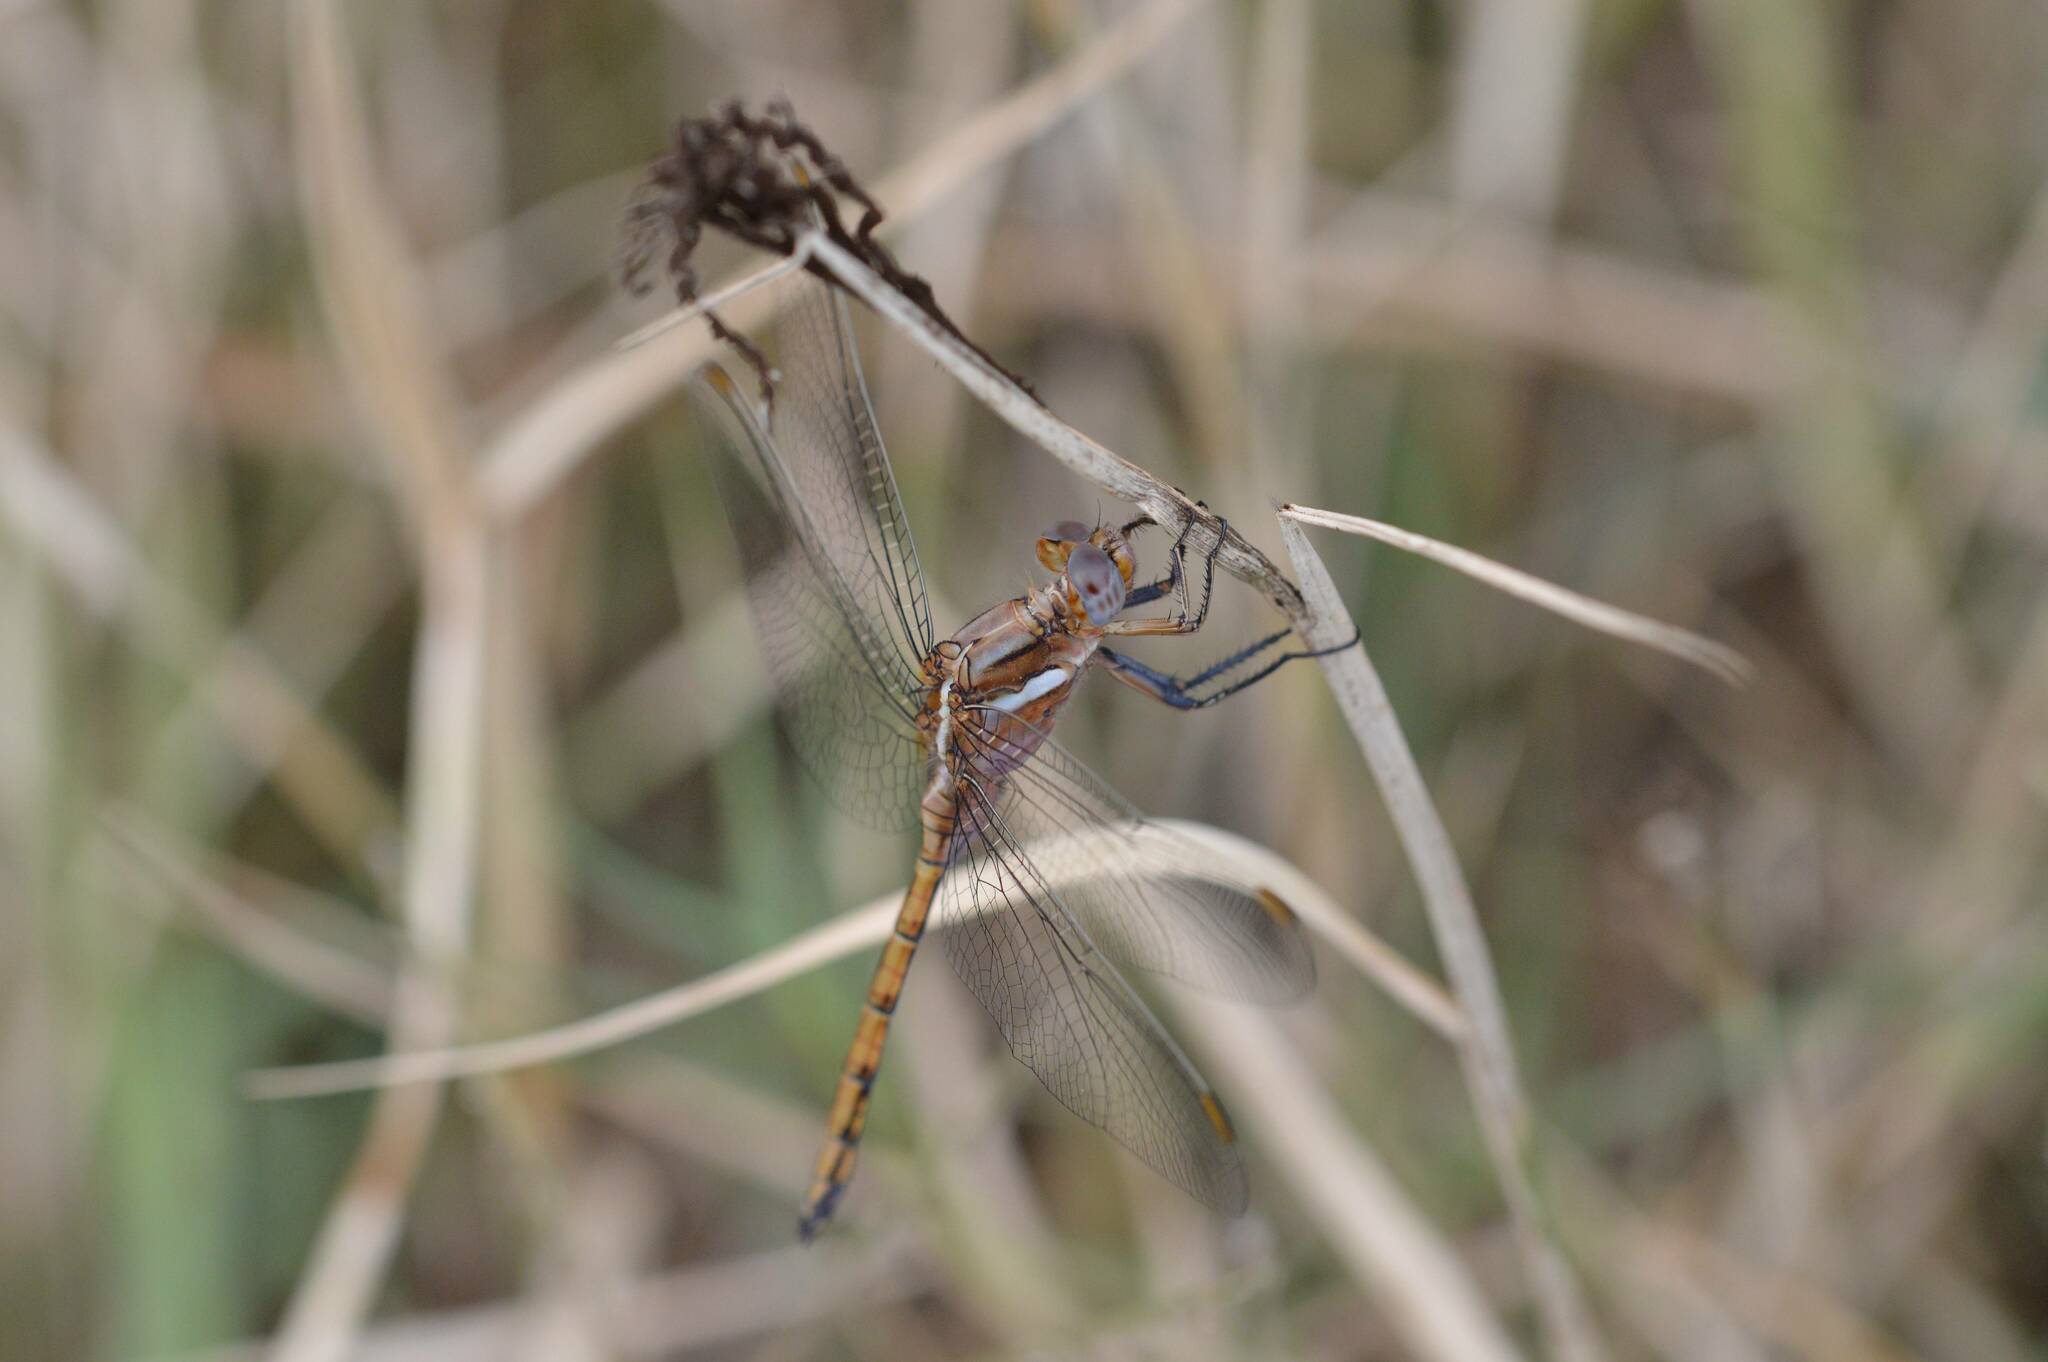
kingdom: Animalia
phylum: Arthropoda
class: Insecta
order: Odonata
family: Libellulidae
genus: Orthetrum
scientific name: Orthetrum chrysostigma
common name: Epaulet skimmer
